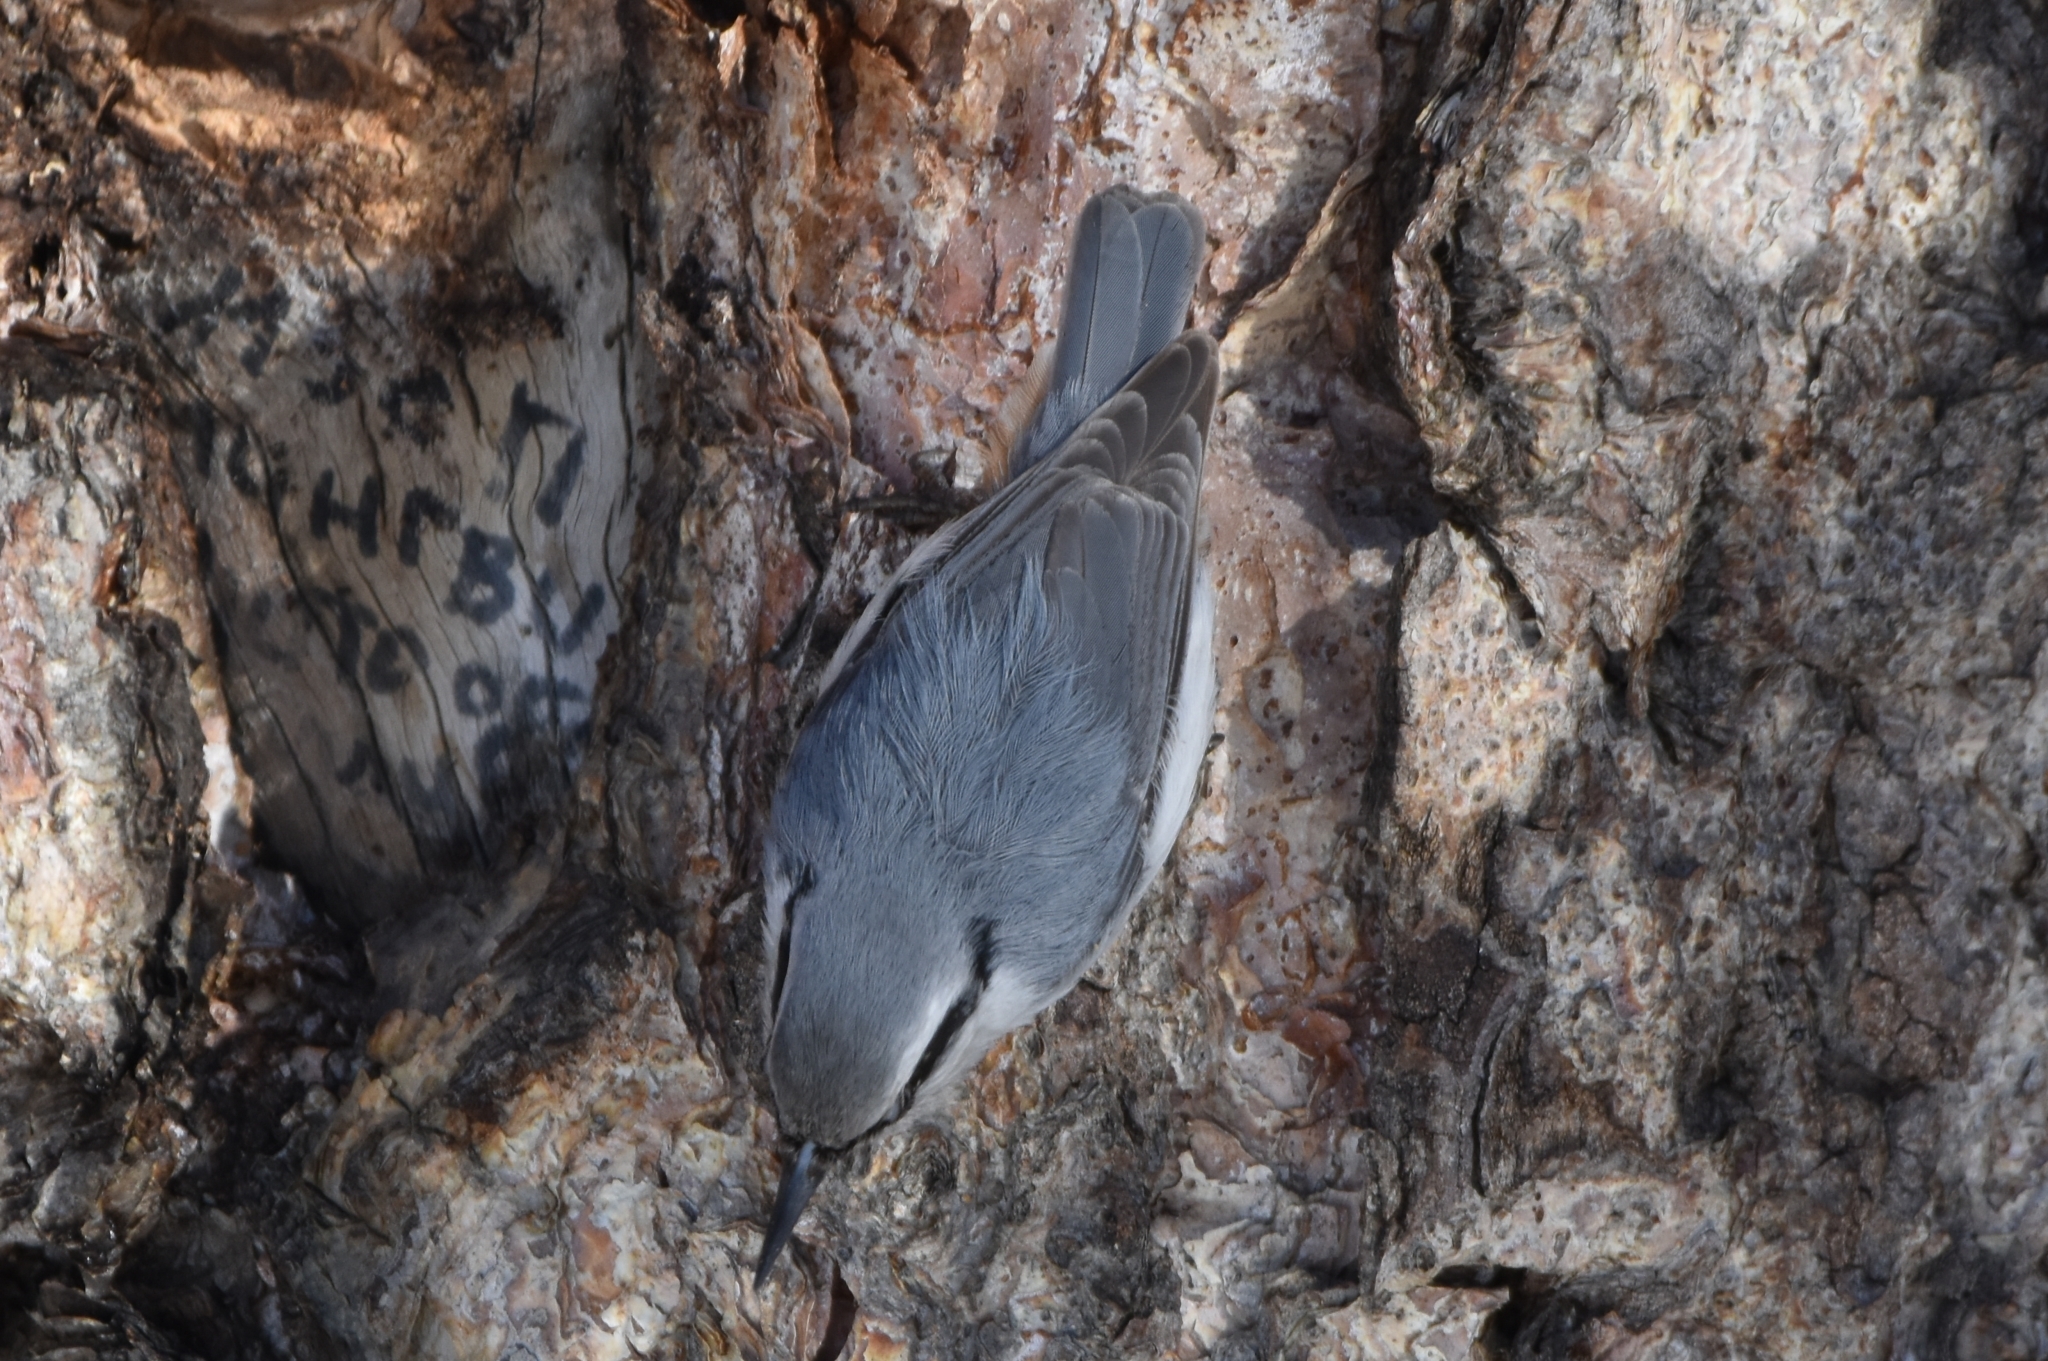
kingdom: Animalia
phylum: Chordata
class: Aves
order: Passeriformes
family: Sittidae
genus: Sitta
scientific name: Sitta europaea
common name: Eurasian nuthatch
